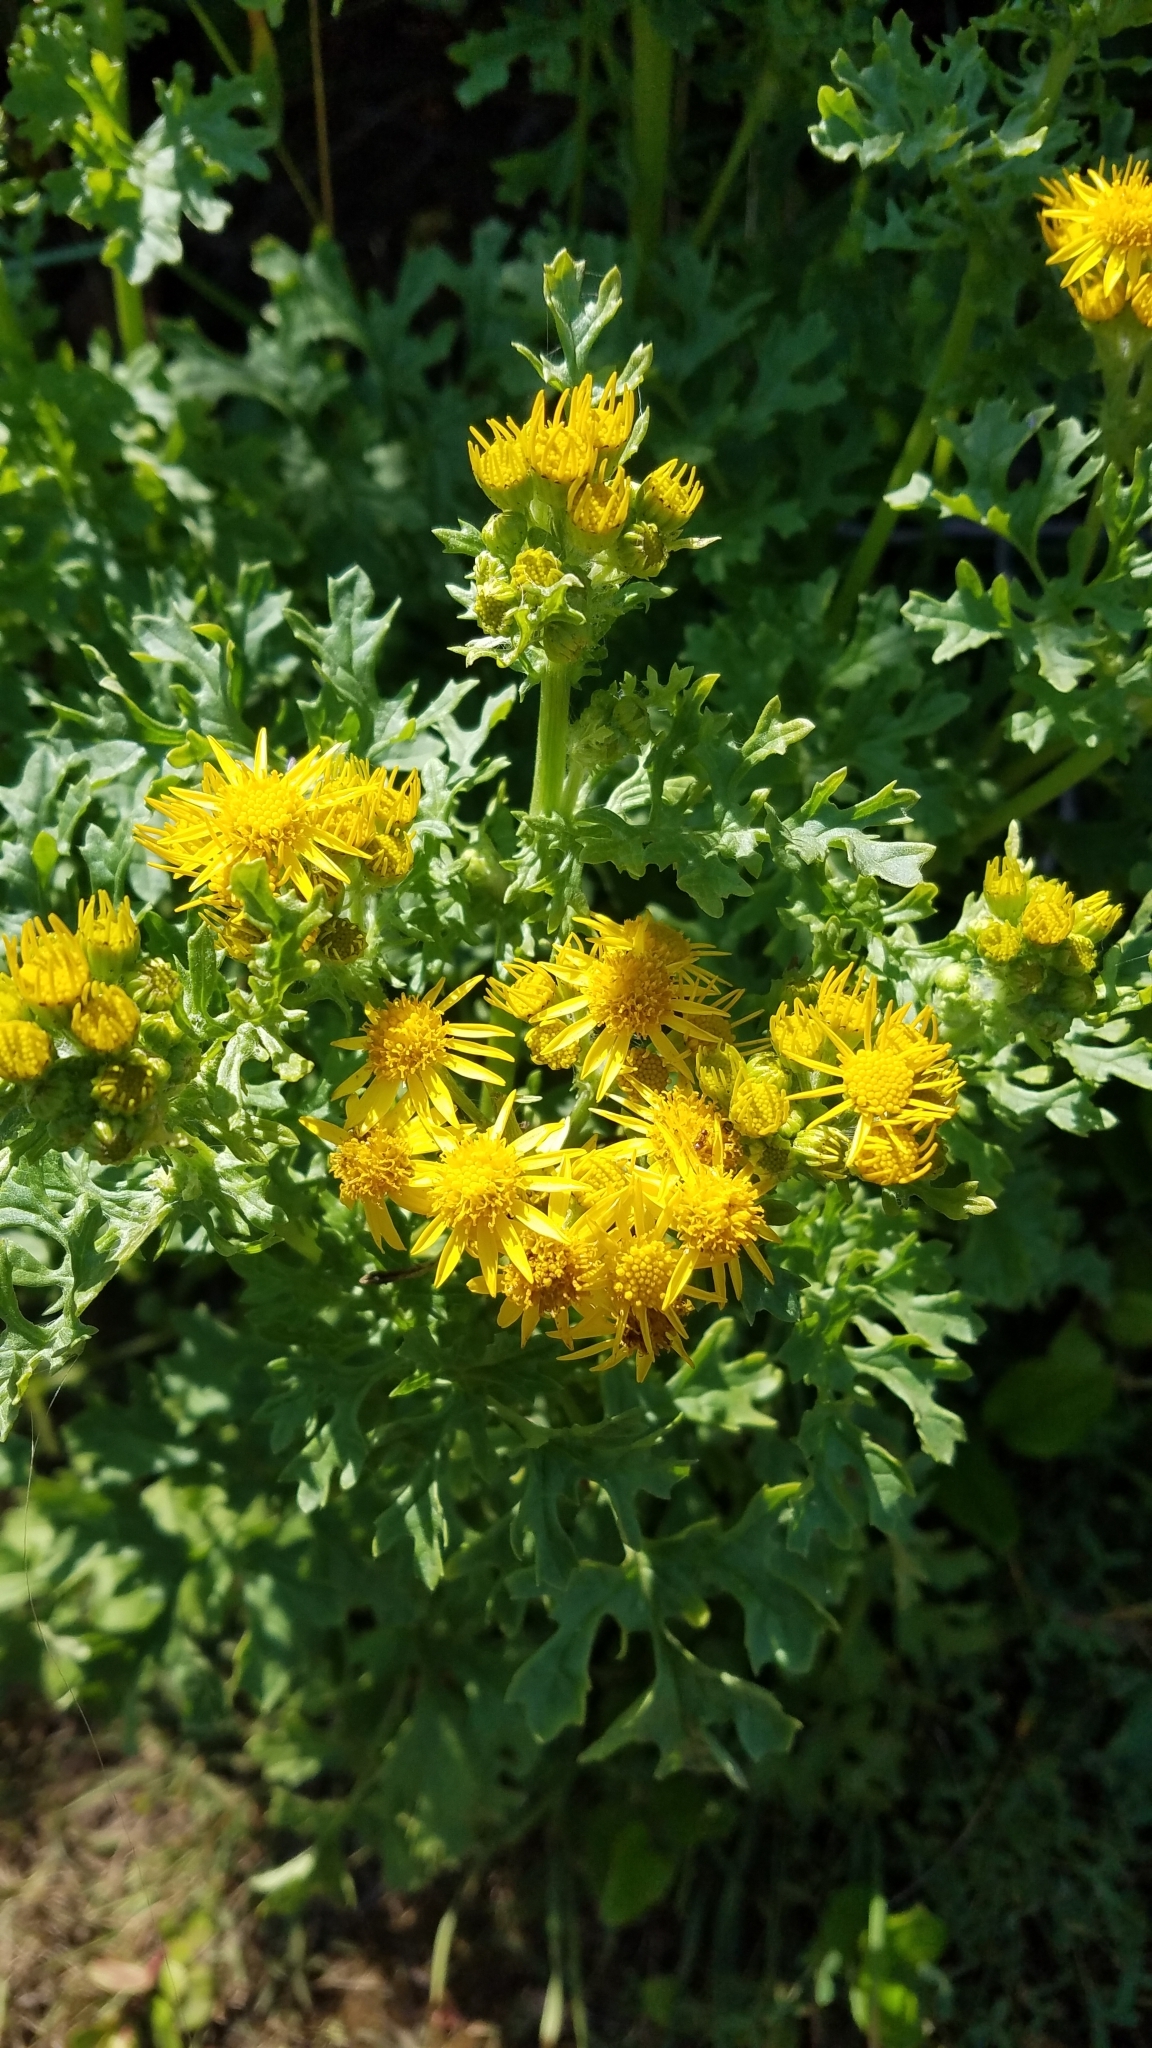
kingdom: Plantae
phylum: Tracheophyta
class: Magnoliopsida
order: Asterales
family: Asteraceae
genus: Jacobaea
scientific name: Jacobaea vulgaris
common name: Stinking willie
